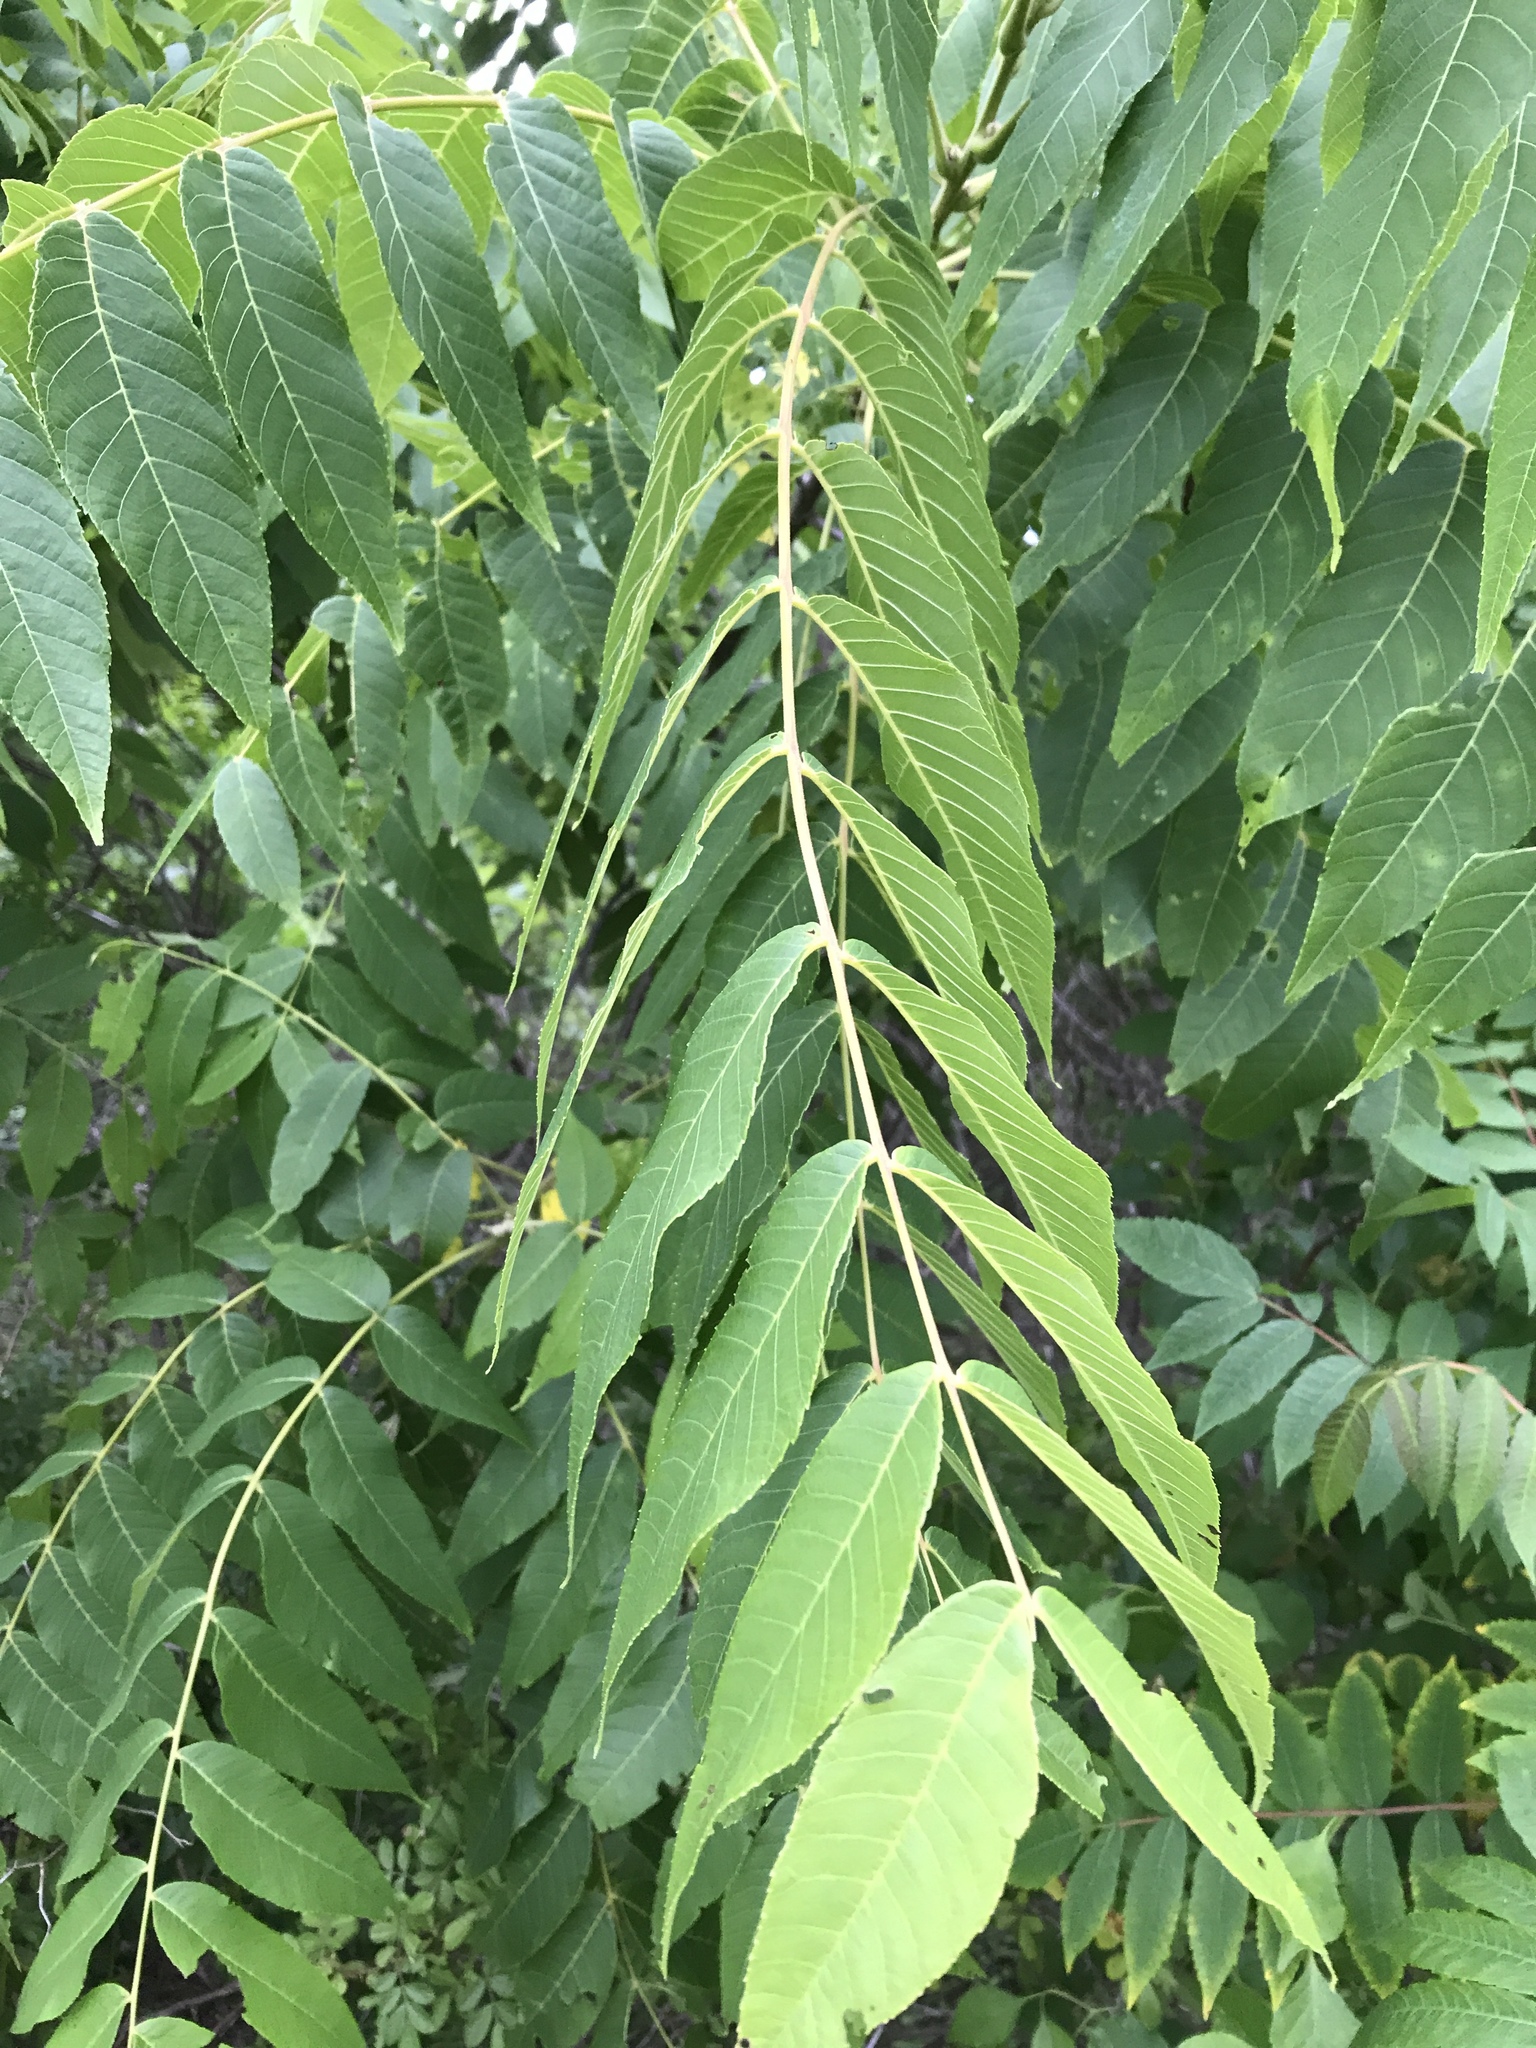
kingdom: Plantae
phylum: Tracheophyta
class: Magnoliopsida
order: Fagales
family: Juglandaceae
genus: Juglans
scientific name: Juglans nigra
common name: Black walnut
